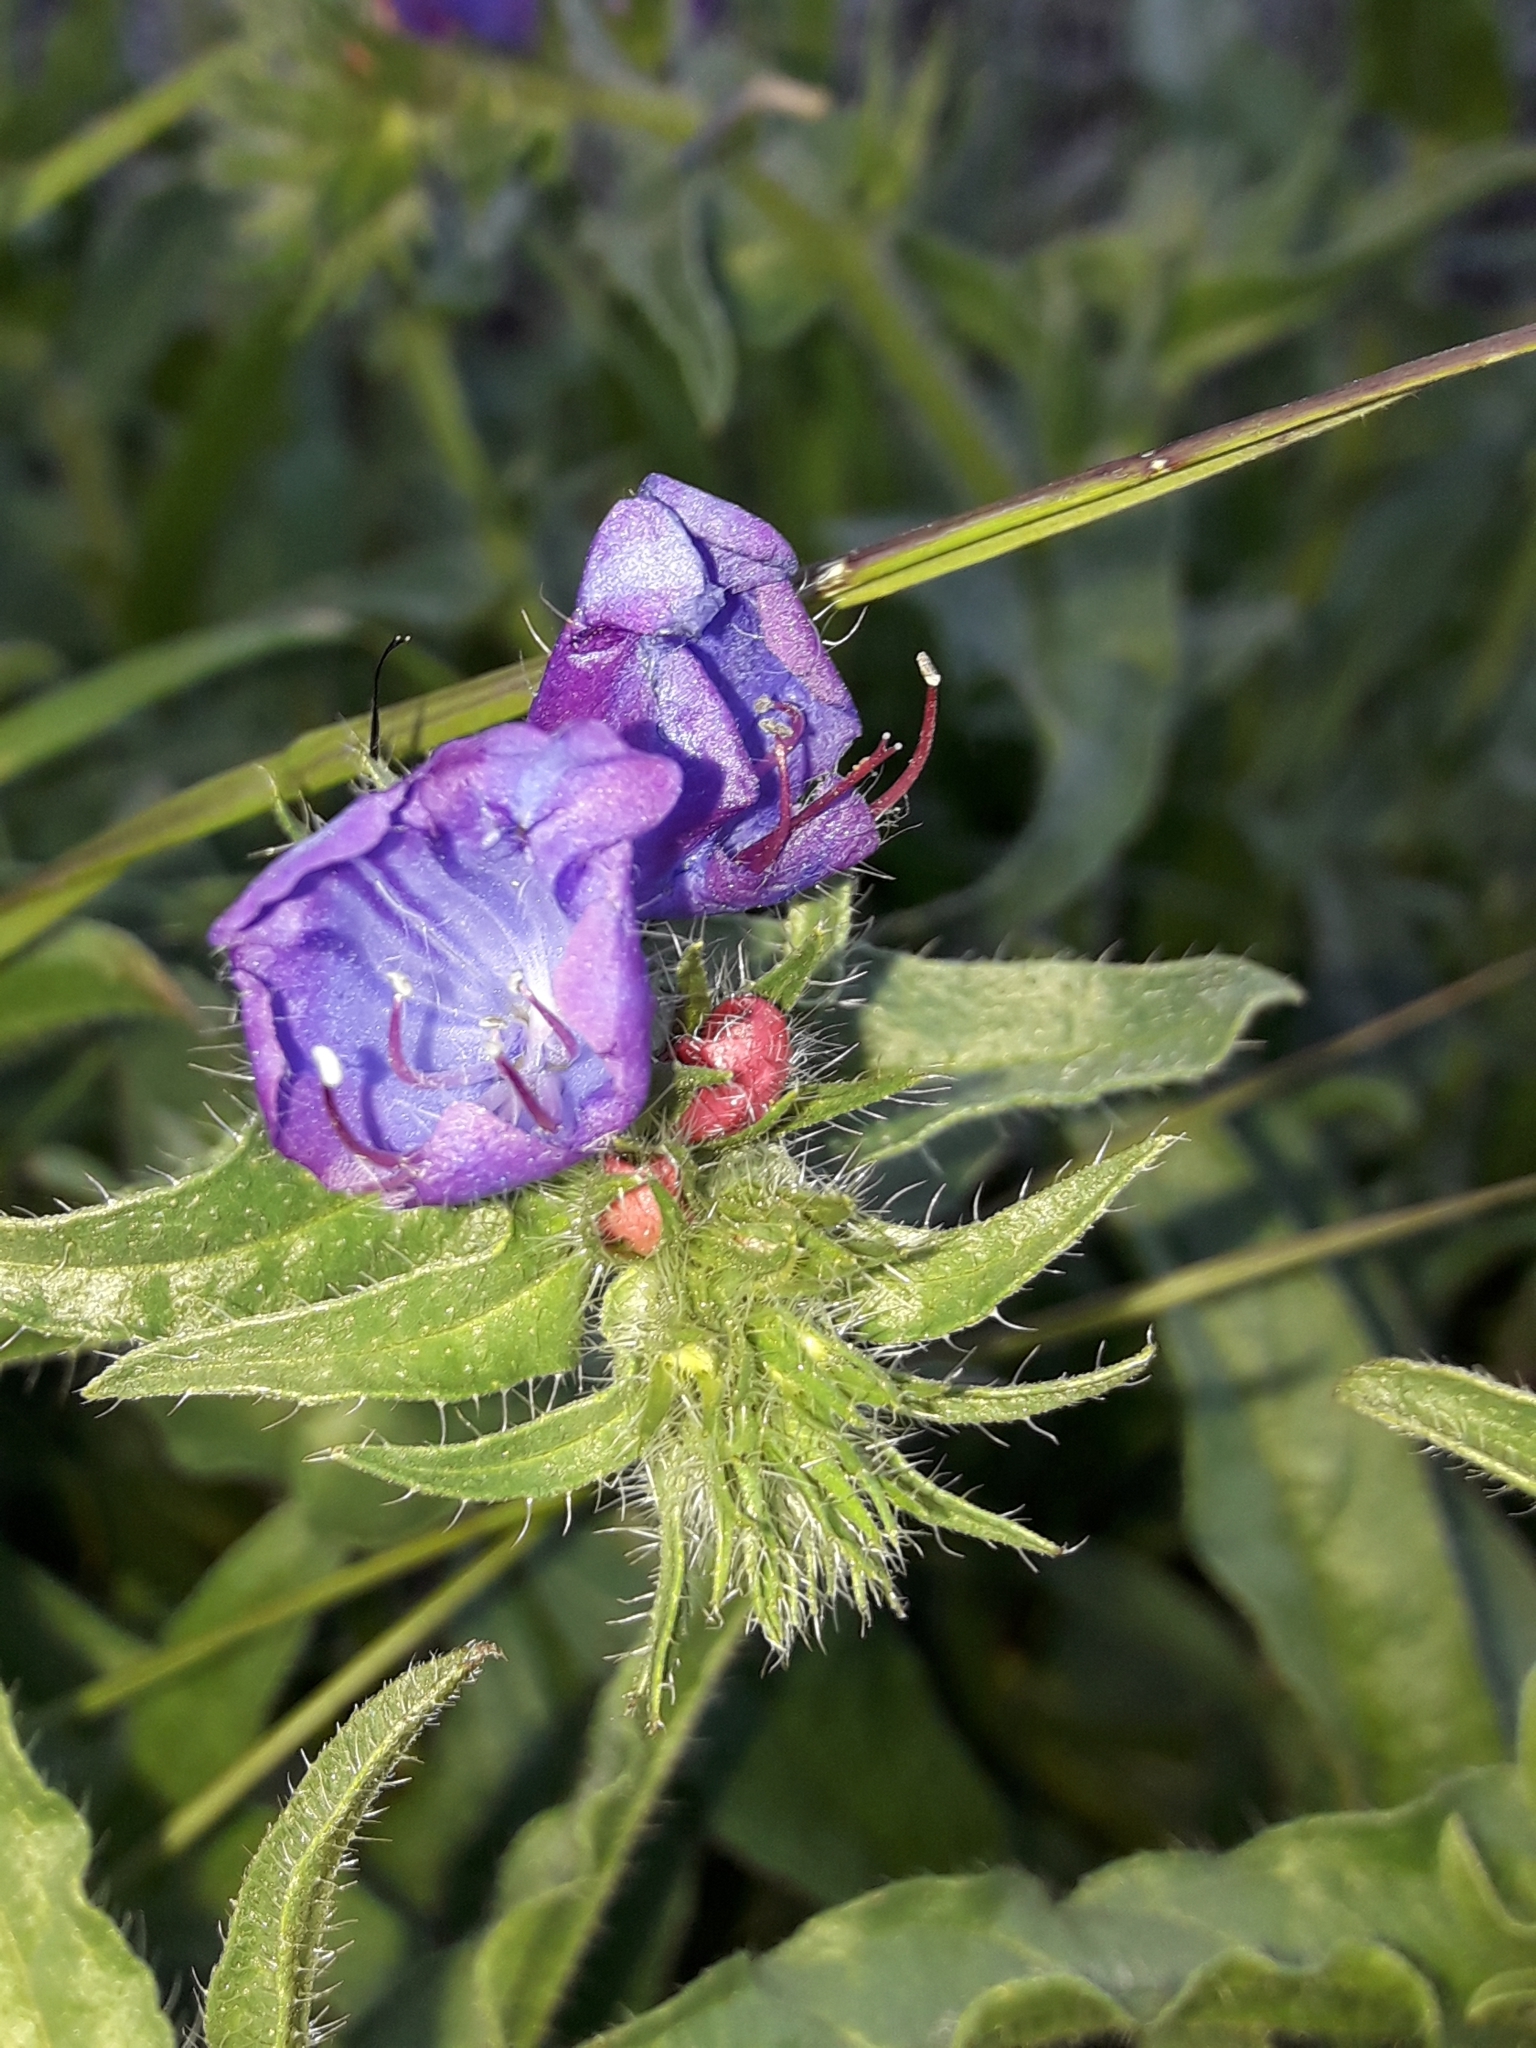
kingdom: Plantae
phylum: Tracheophyta
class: Magnoliopsida
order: Boraginales
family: Boraginaceae
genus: Echium
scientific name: Echium plantagineum
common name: Purple viper's-bugloss
